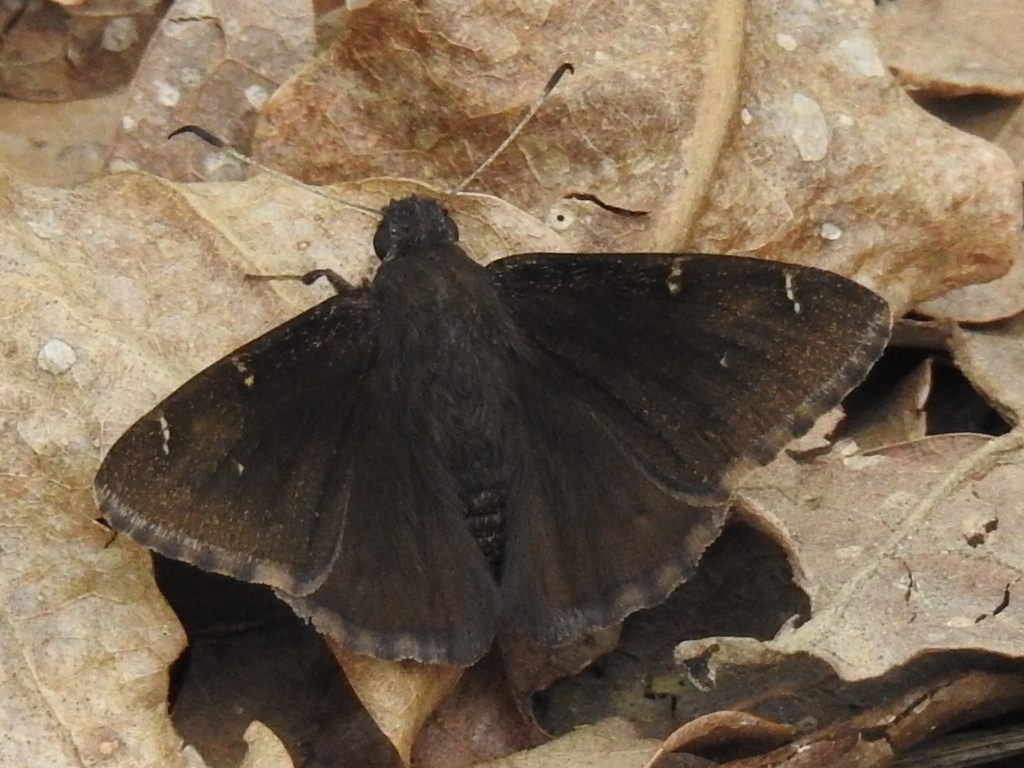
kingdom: Animalia
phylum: Arthropoda
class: Insecta
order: Lepidoptera
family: Hesperiidae
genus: Thorybes
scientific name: Thorybes pylades
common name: Northern cloudywing
